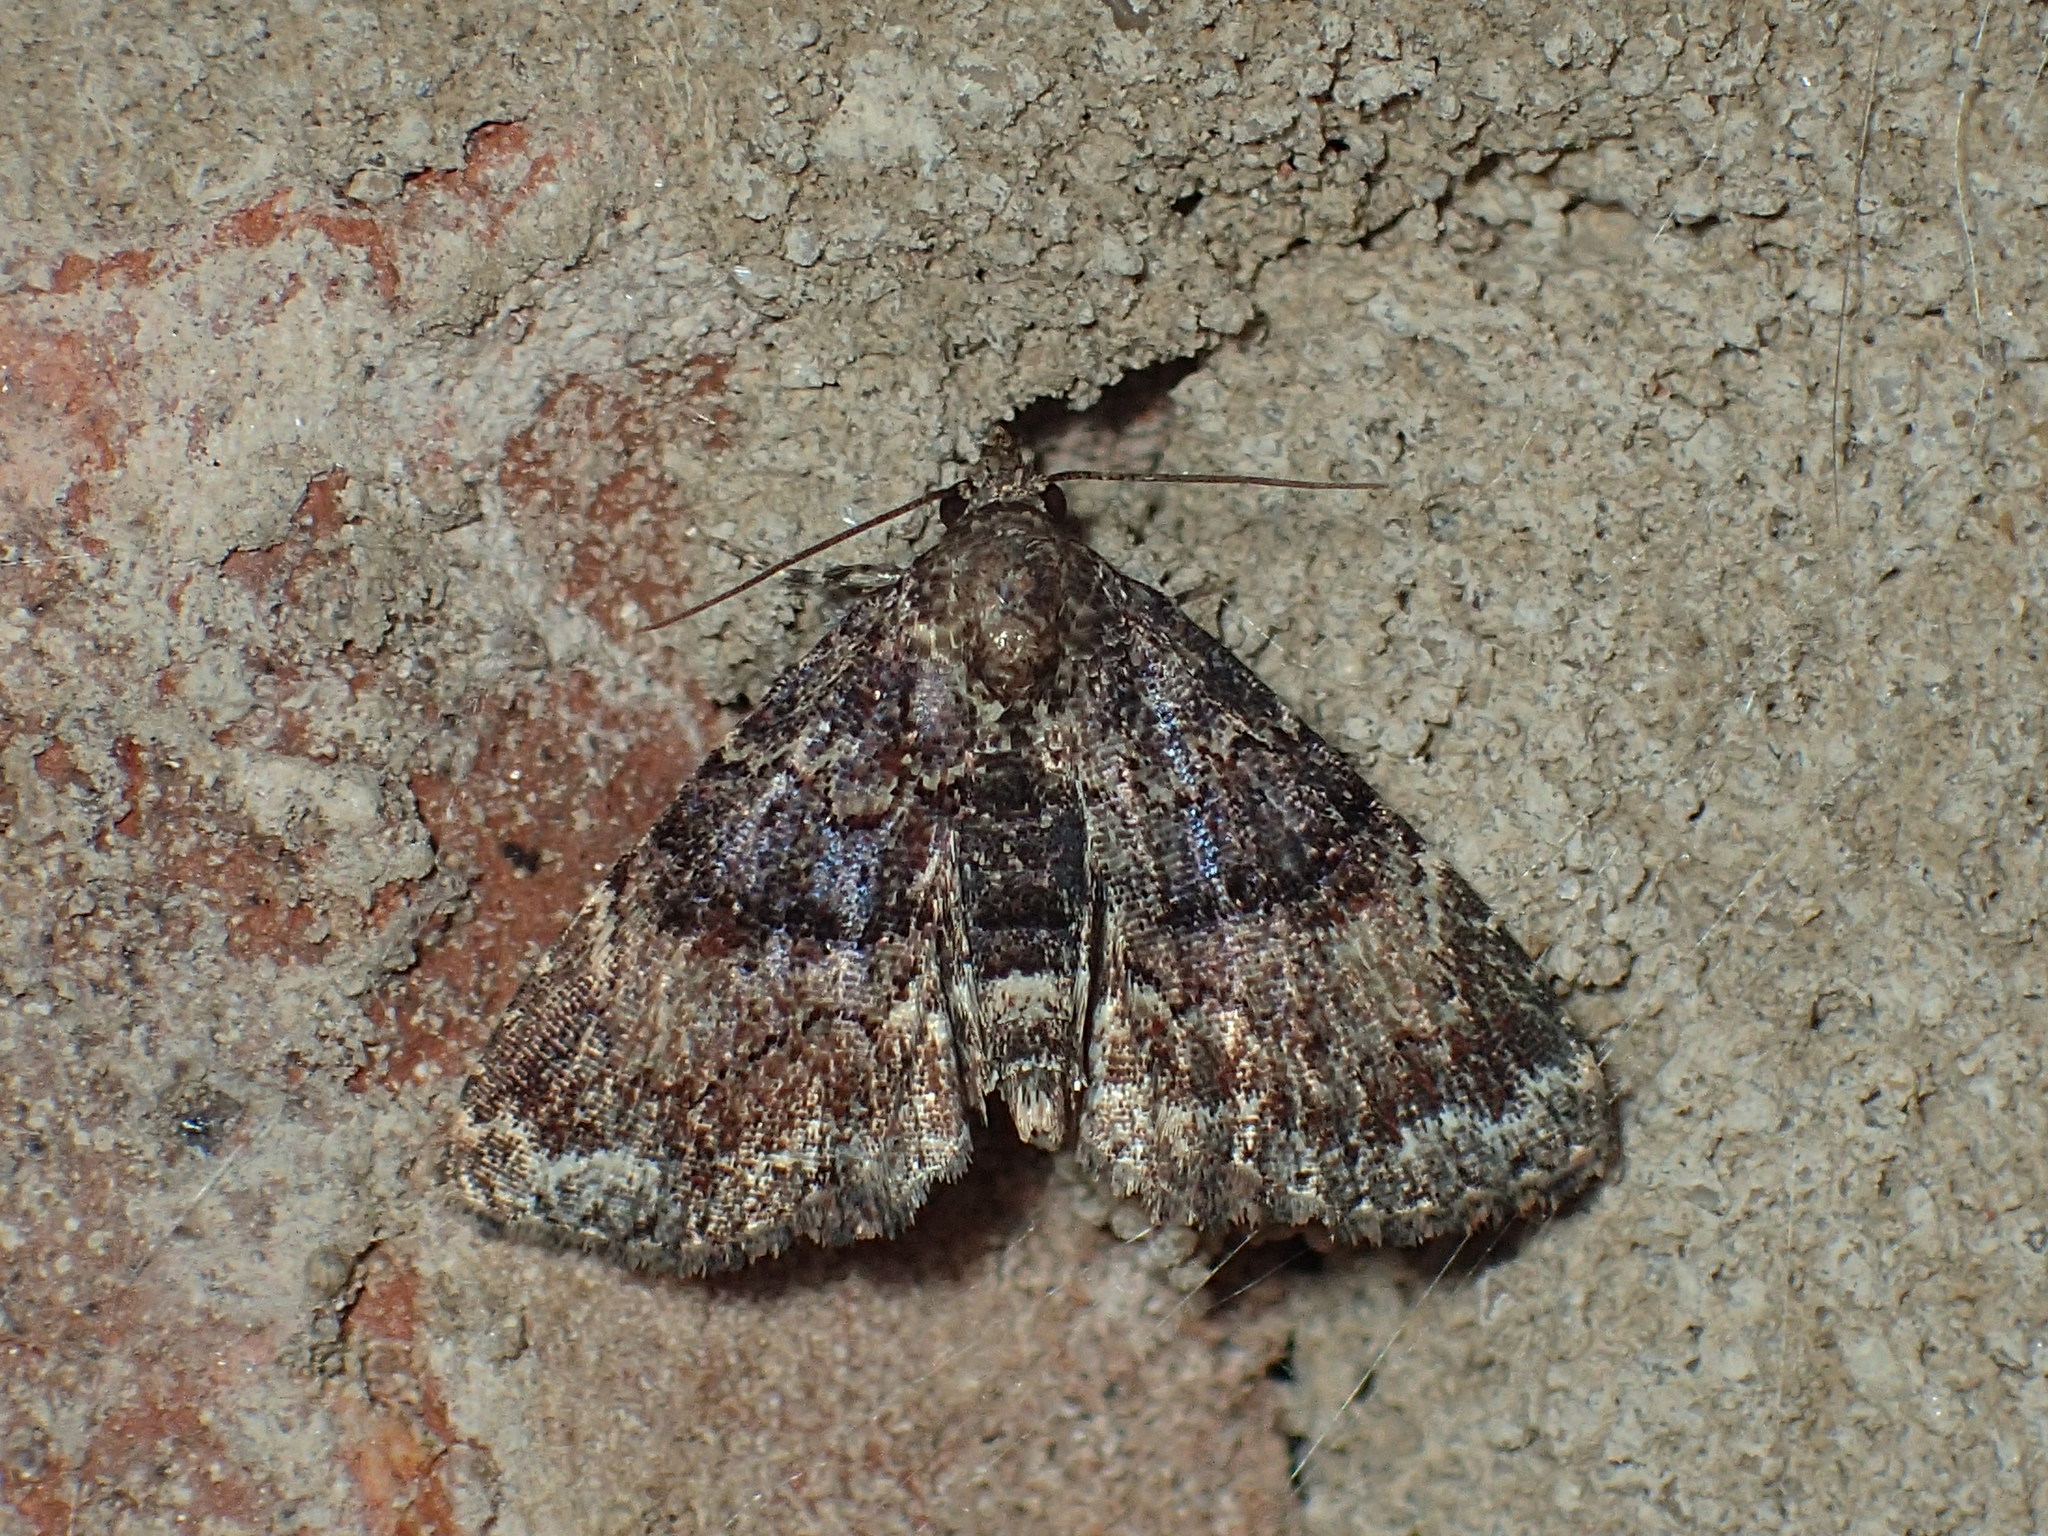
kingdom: Animalia
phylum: Arthropoda
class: Insecta
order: Lepidoptera
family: Erebidae
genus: Metalectra
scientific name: Metalectra richardsi
